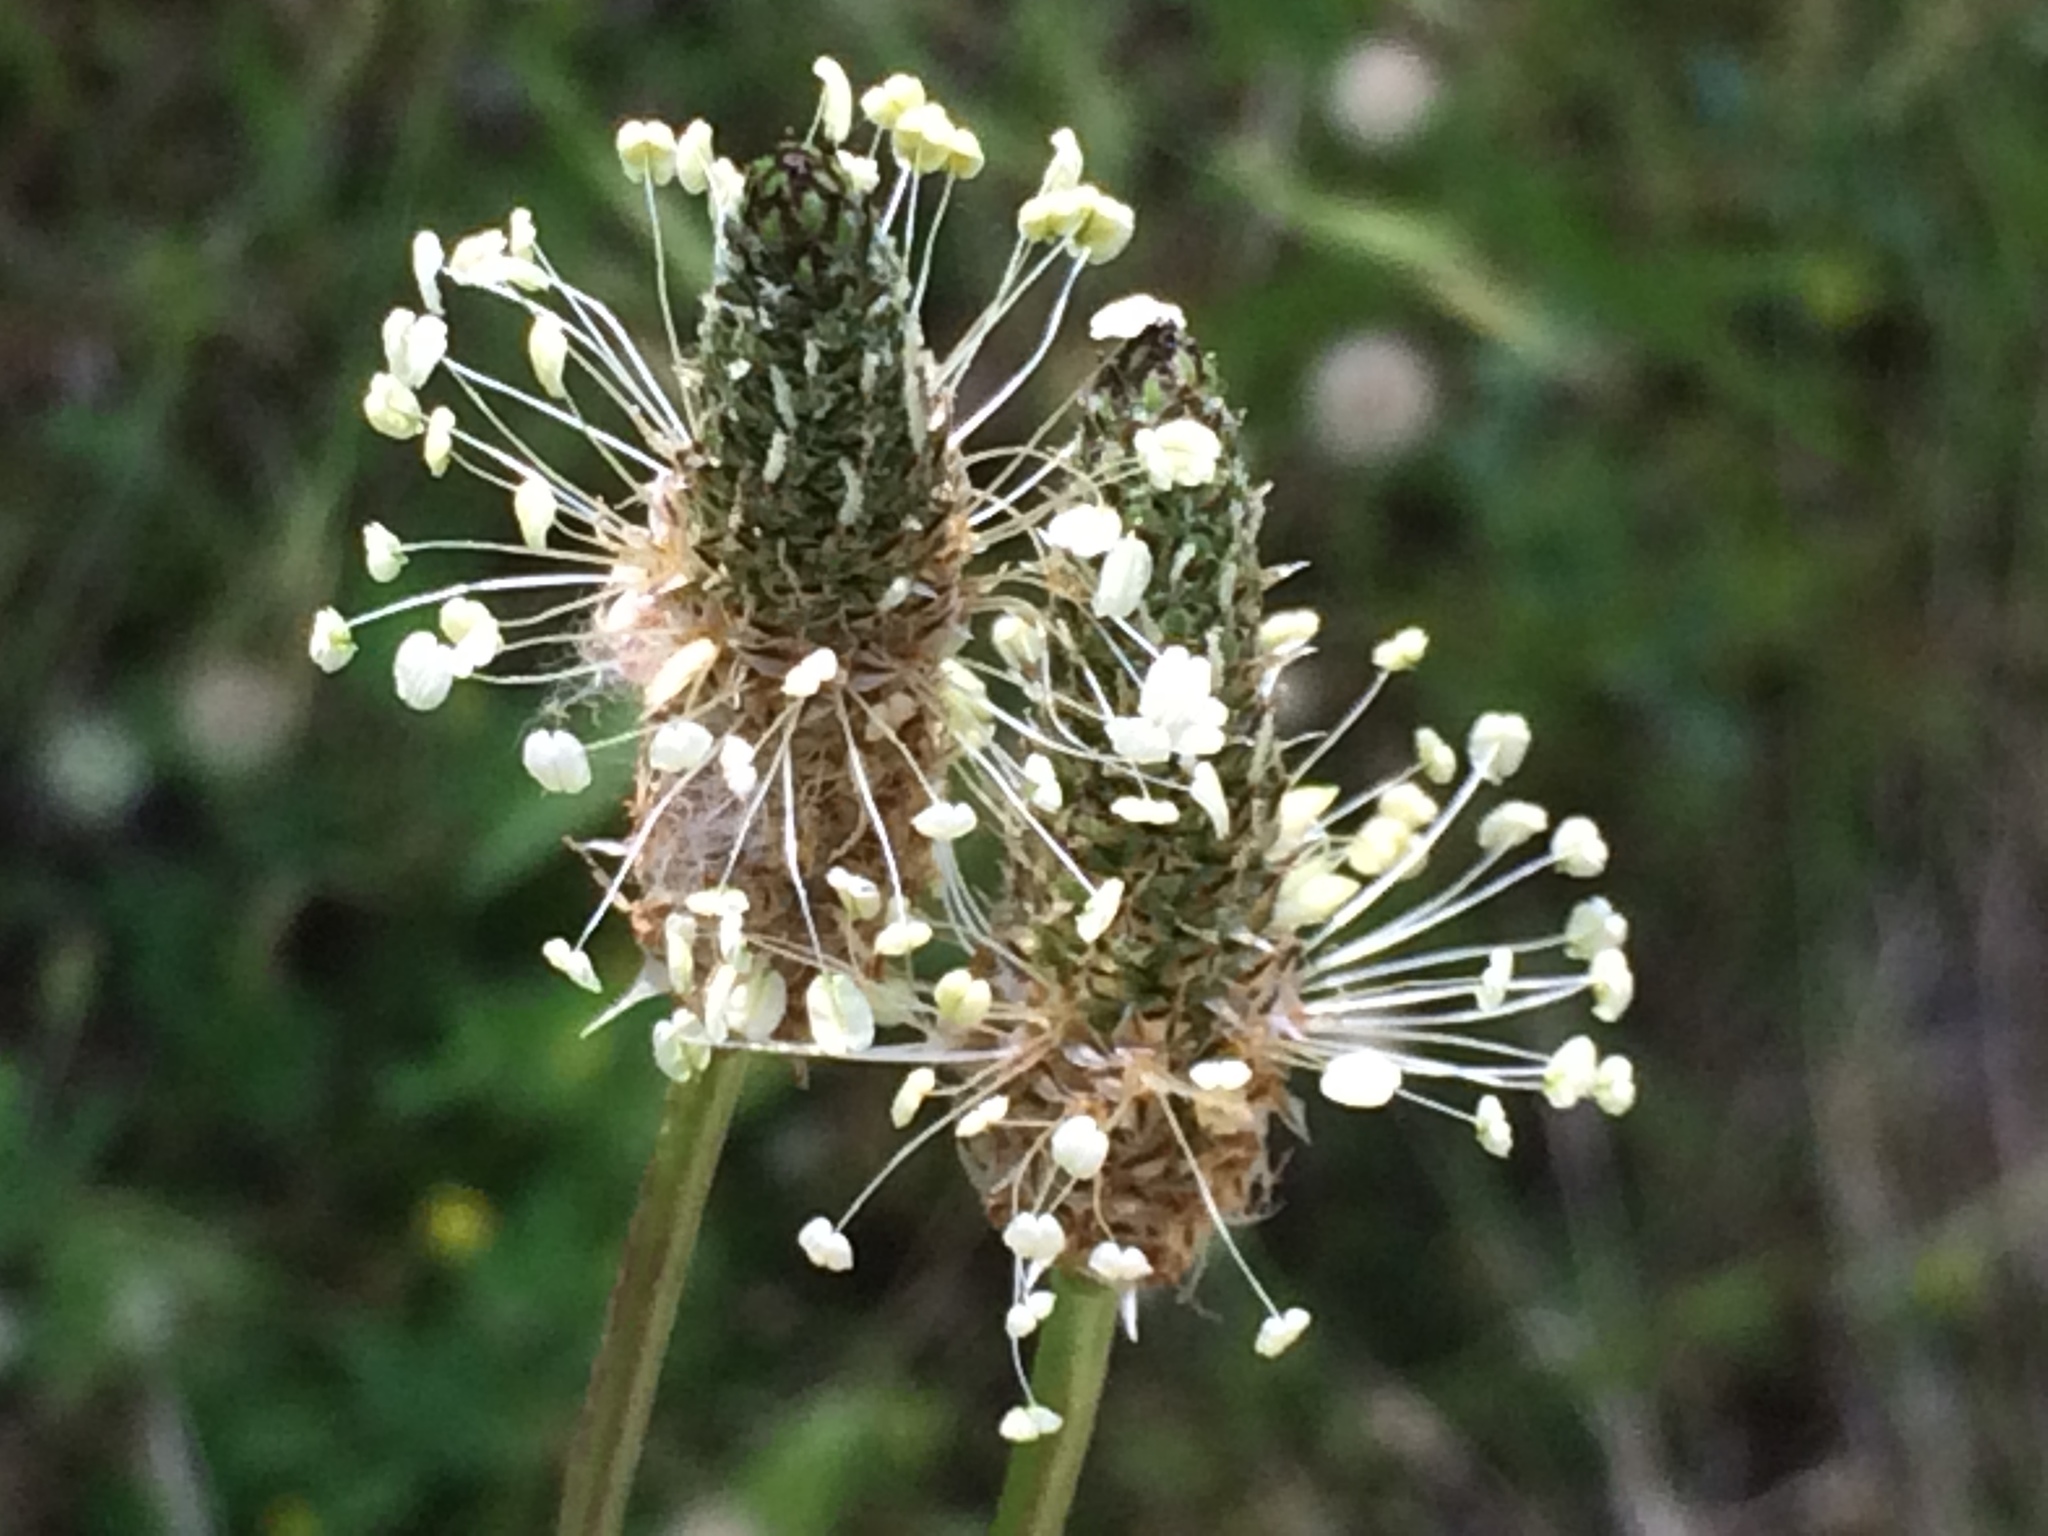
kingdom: Plantae
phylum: Tracheophyta
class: Magnoliopsida
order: Lamiales
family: Plantaginaceae
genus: Plantago
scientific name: Plantago lanceolata
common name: Ribwort plantain
